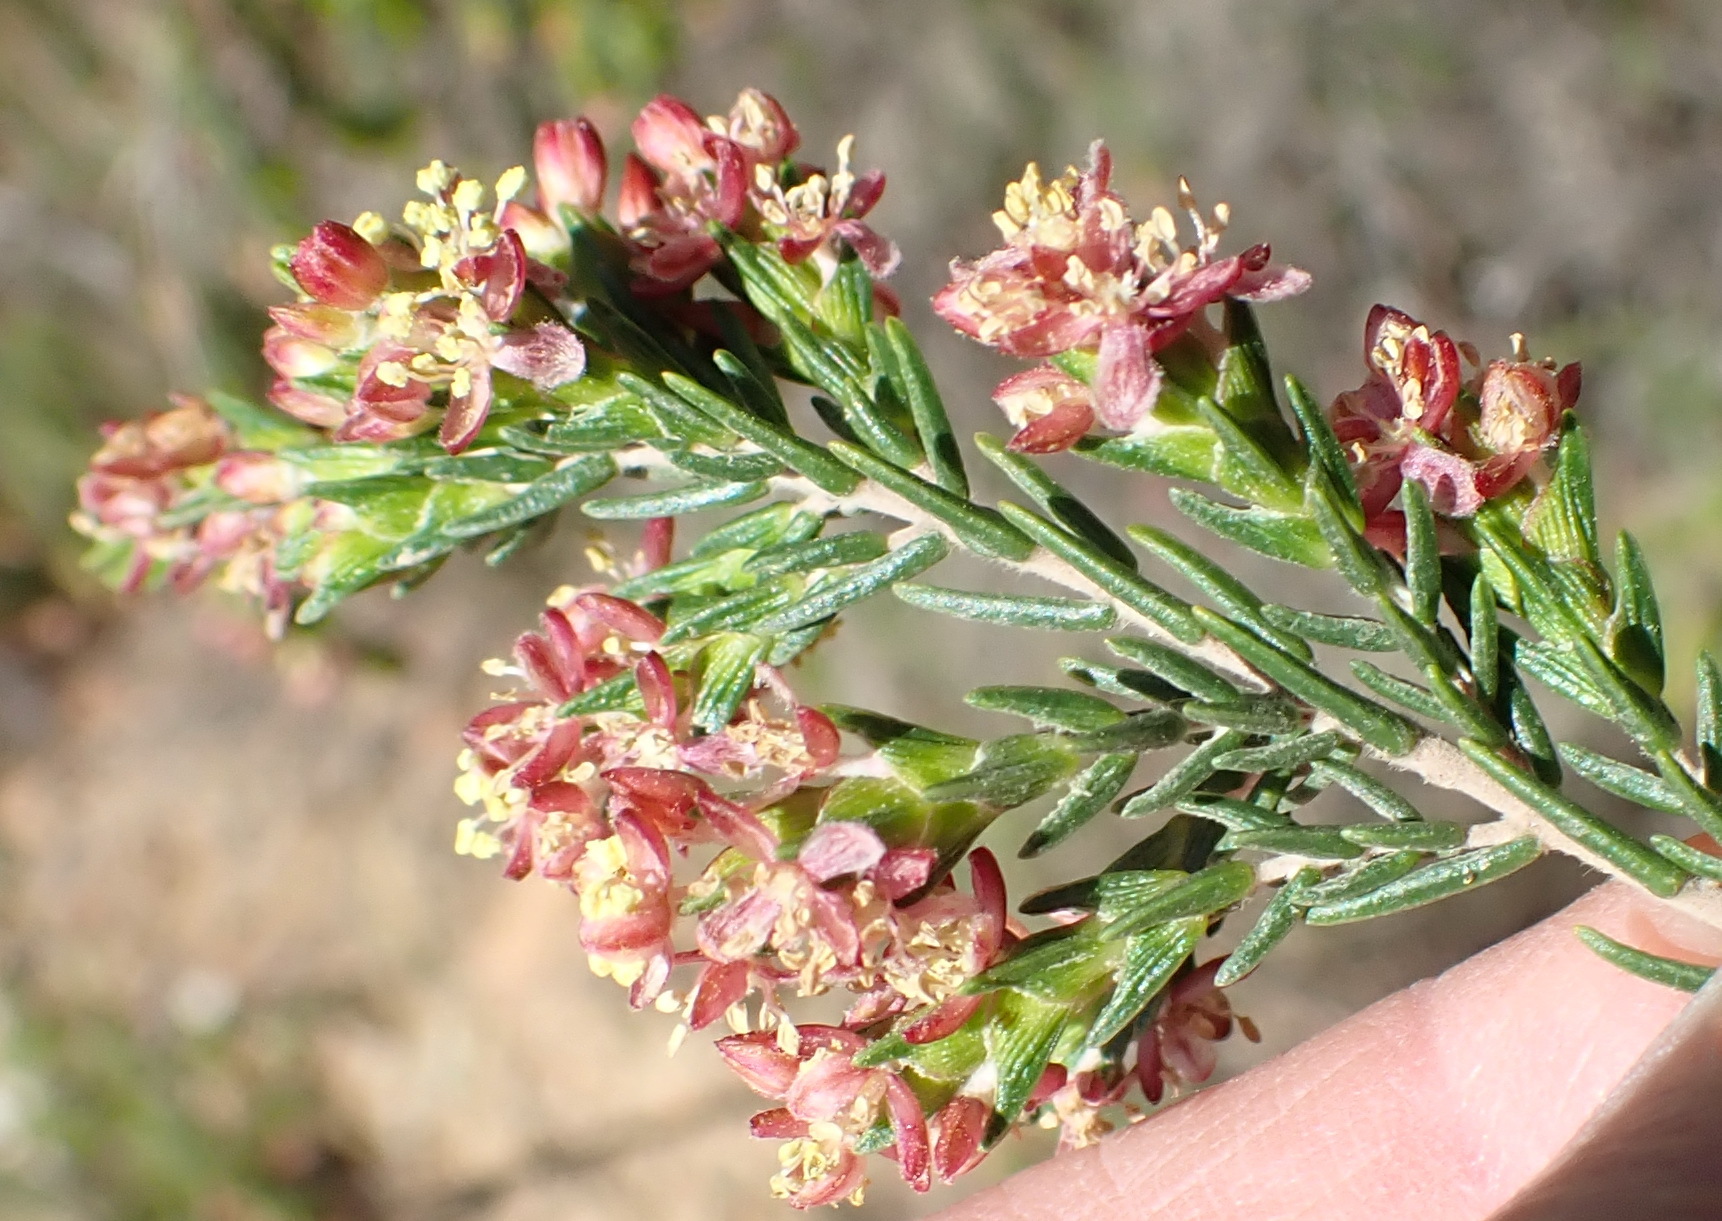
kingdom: Plantae
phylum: Tracheophyta
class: Magnoliopsida
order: Malvales
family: Thymelaeaceae
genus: Passerina
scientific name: Passerina obtusifolia
